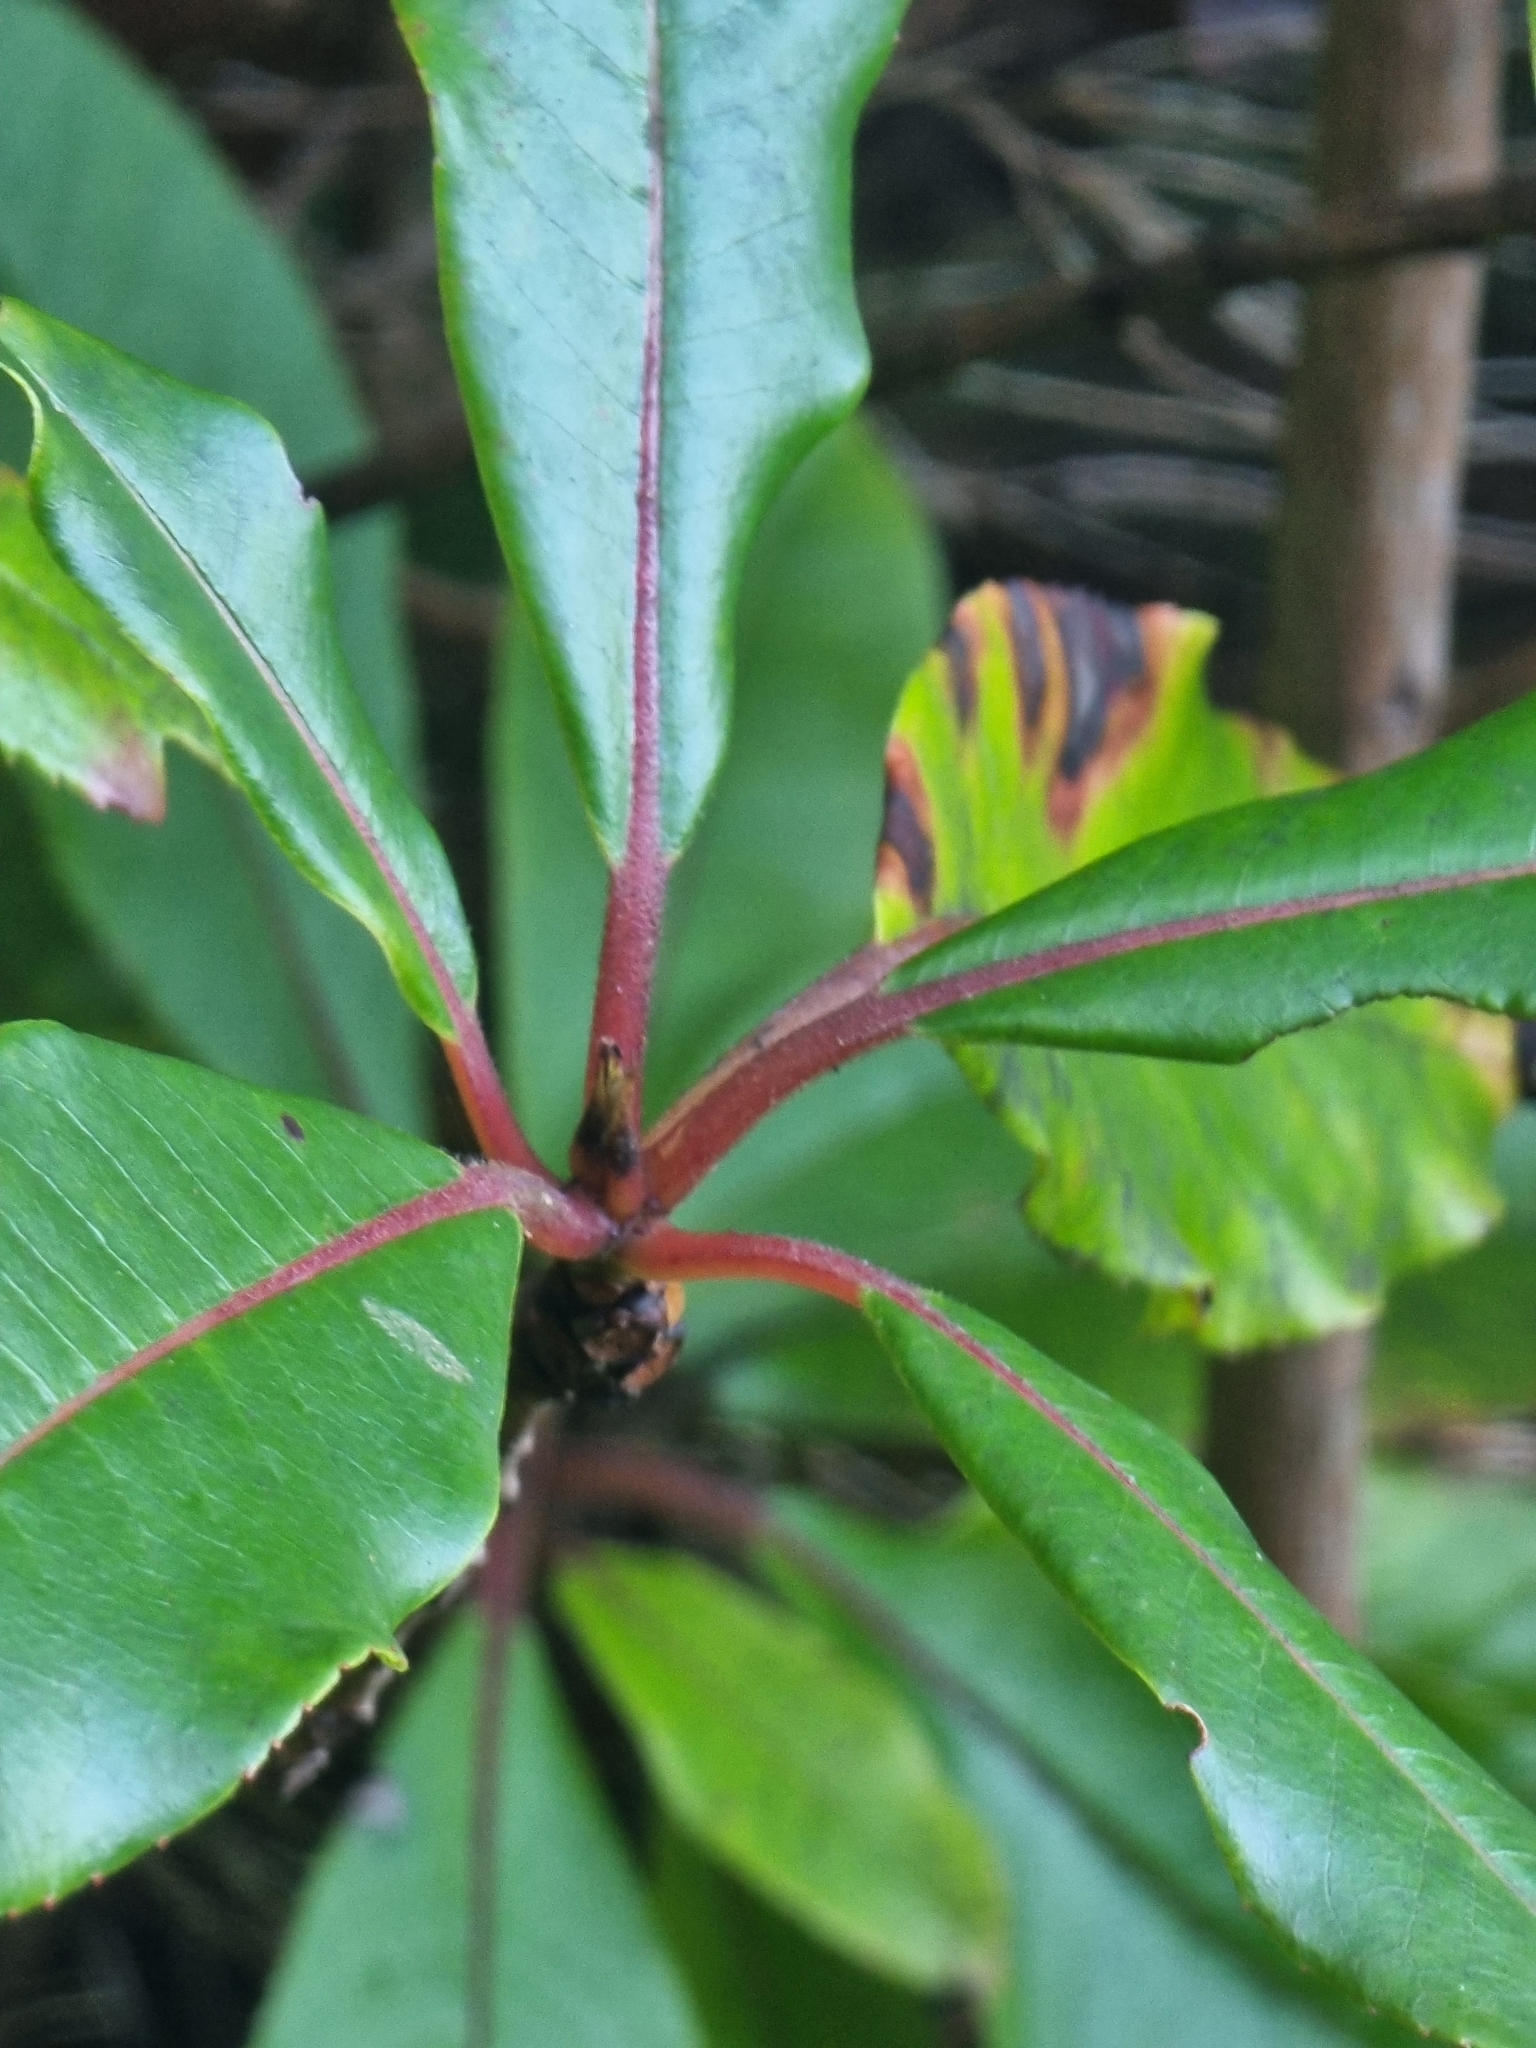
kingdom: Plantae
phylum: Tracheophyta
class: Magnoliopsida
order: Ericales
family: Clethraceae
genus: Clethra
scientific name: Clethra arborea
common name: Lily-of-the-valley-tree
